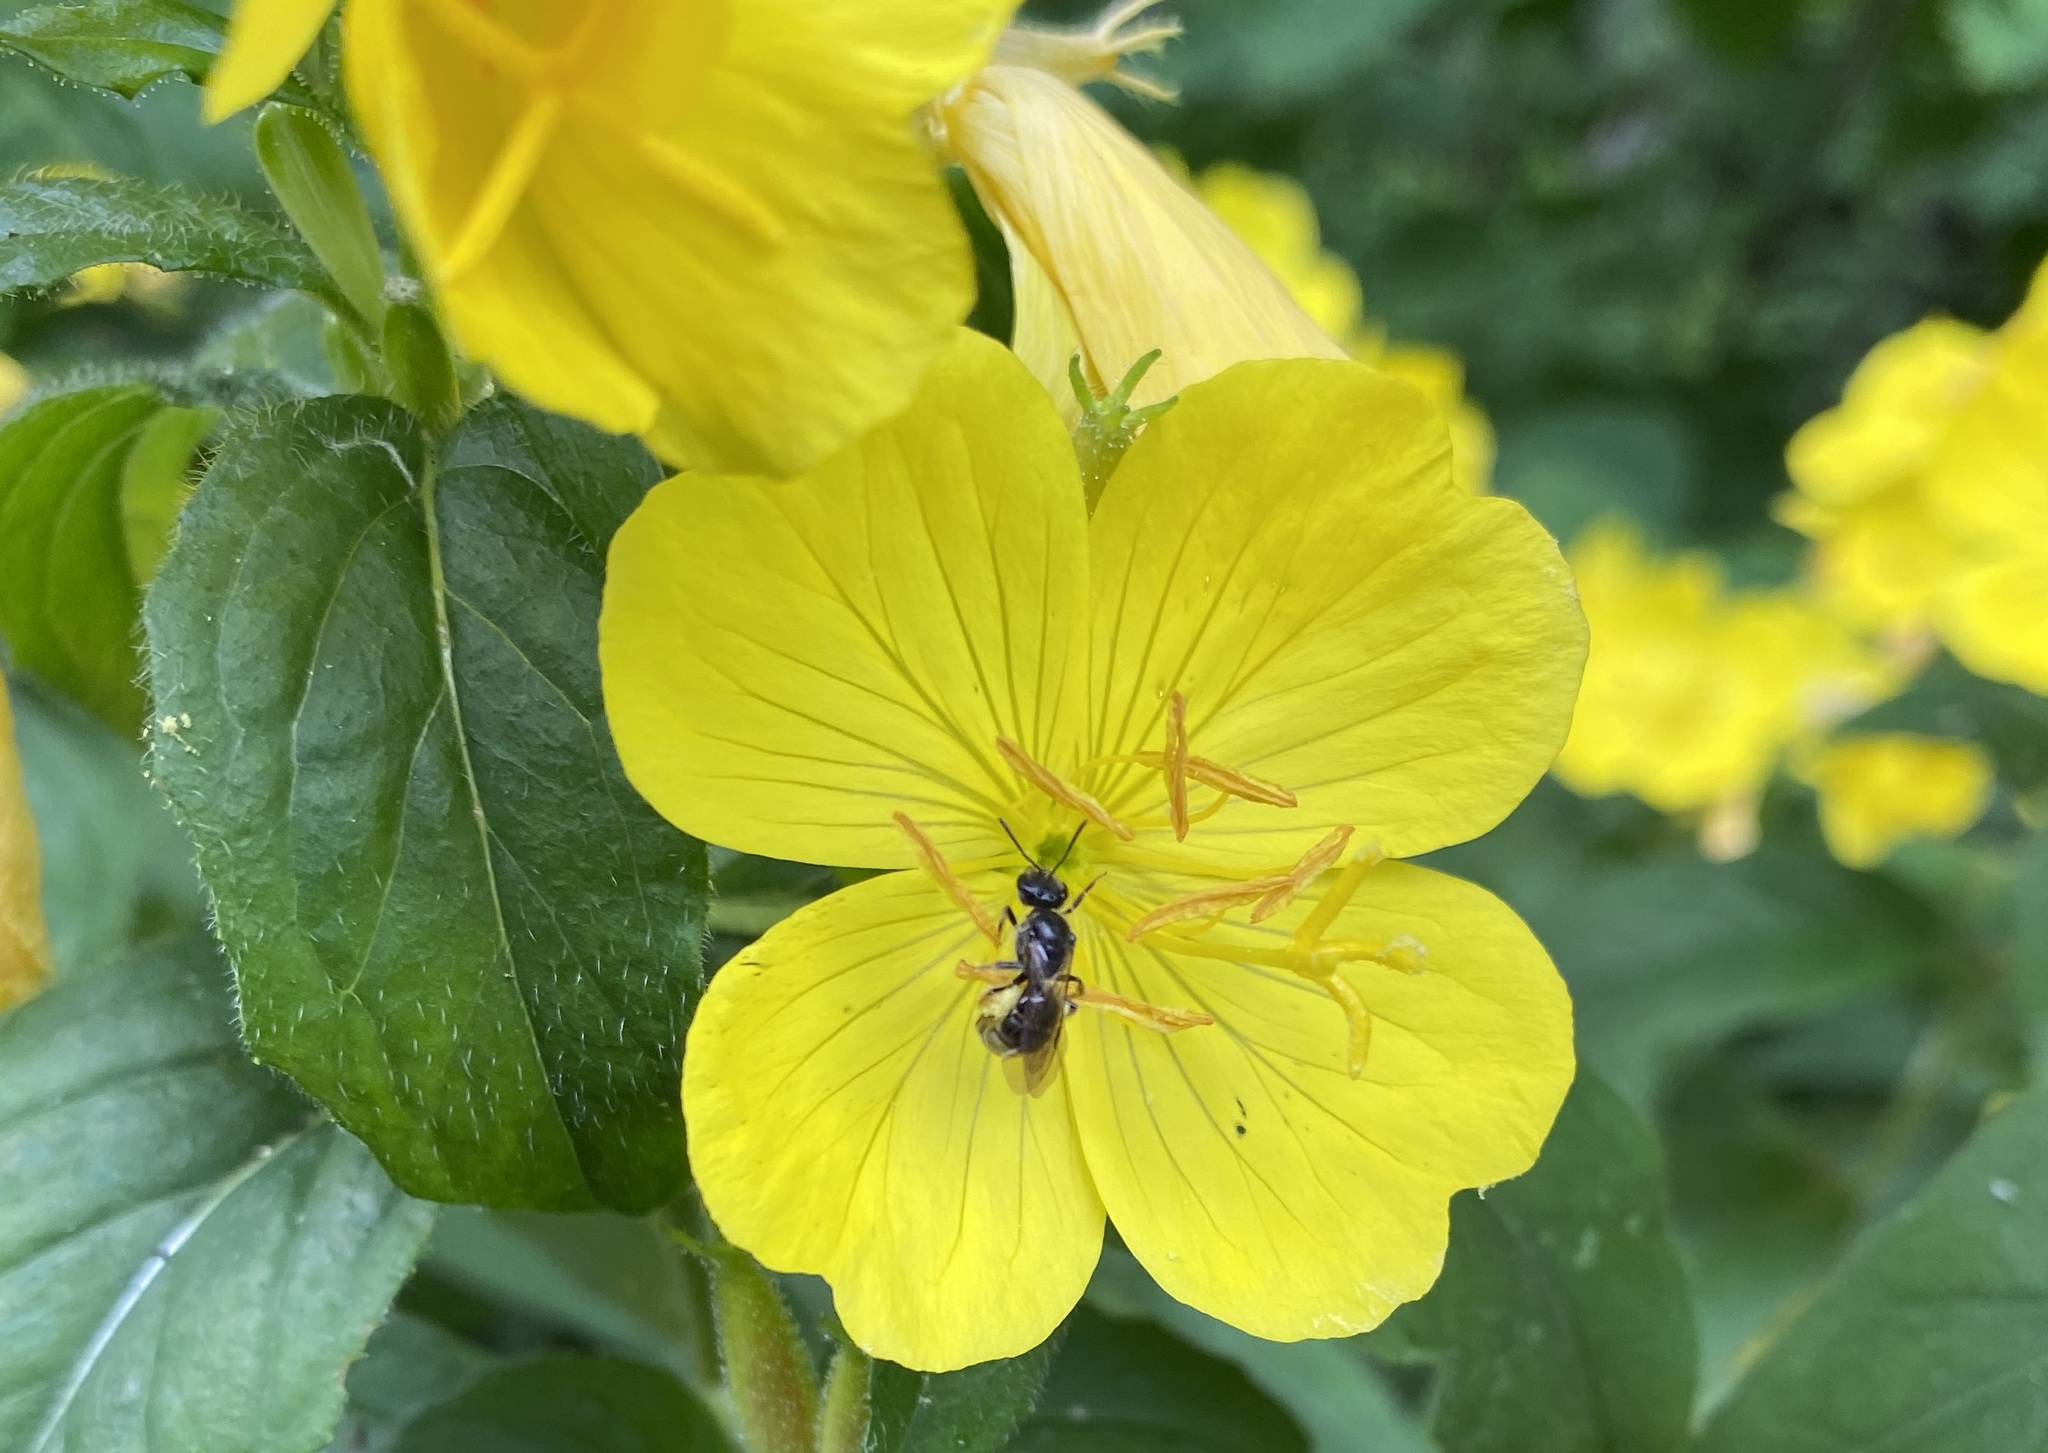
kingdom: Animalia
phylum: Arthropoda
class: Insecta
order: Hymenoptera
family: Halictidae
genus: Lasioglossum
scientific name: Lasioglossum oenotherae
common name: Evening primrose sweat bee
